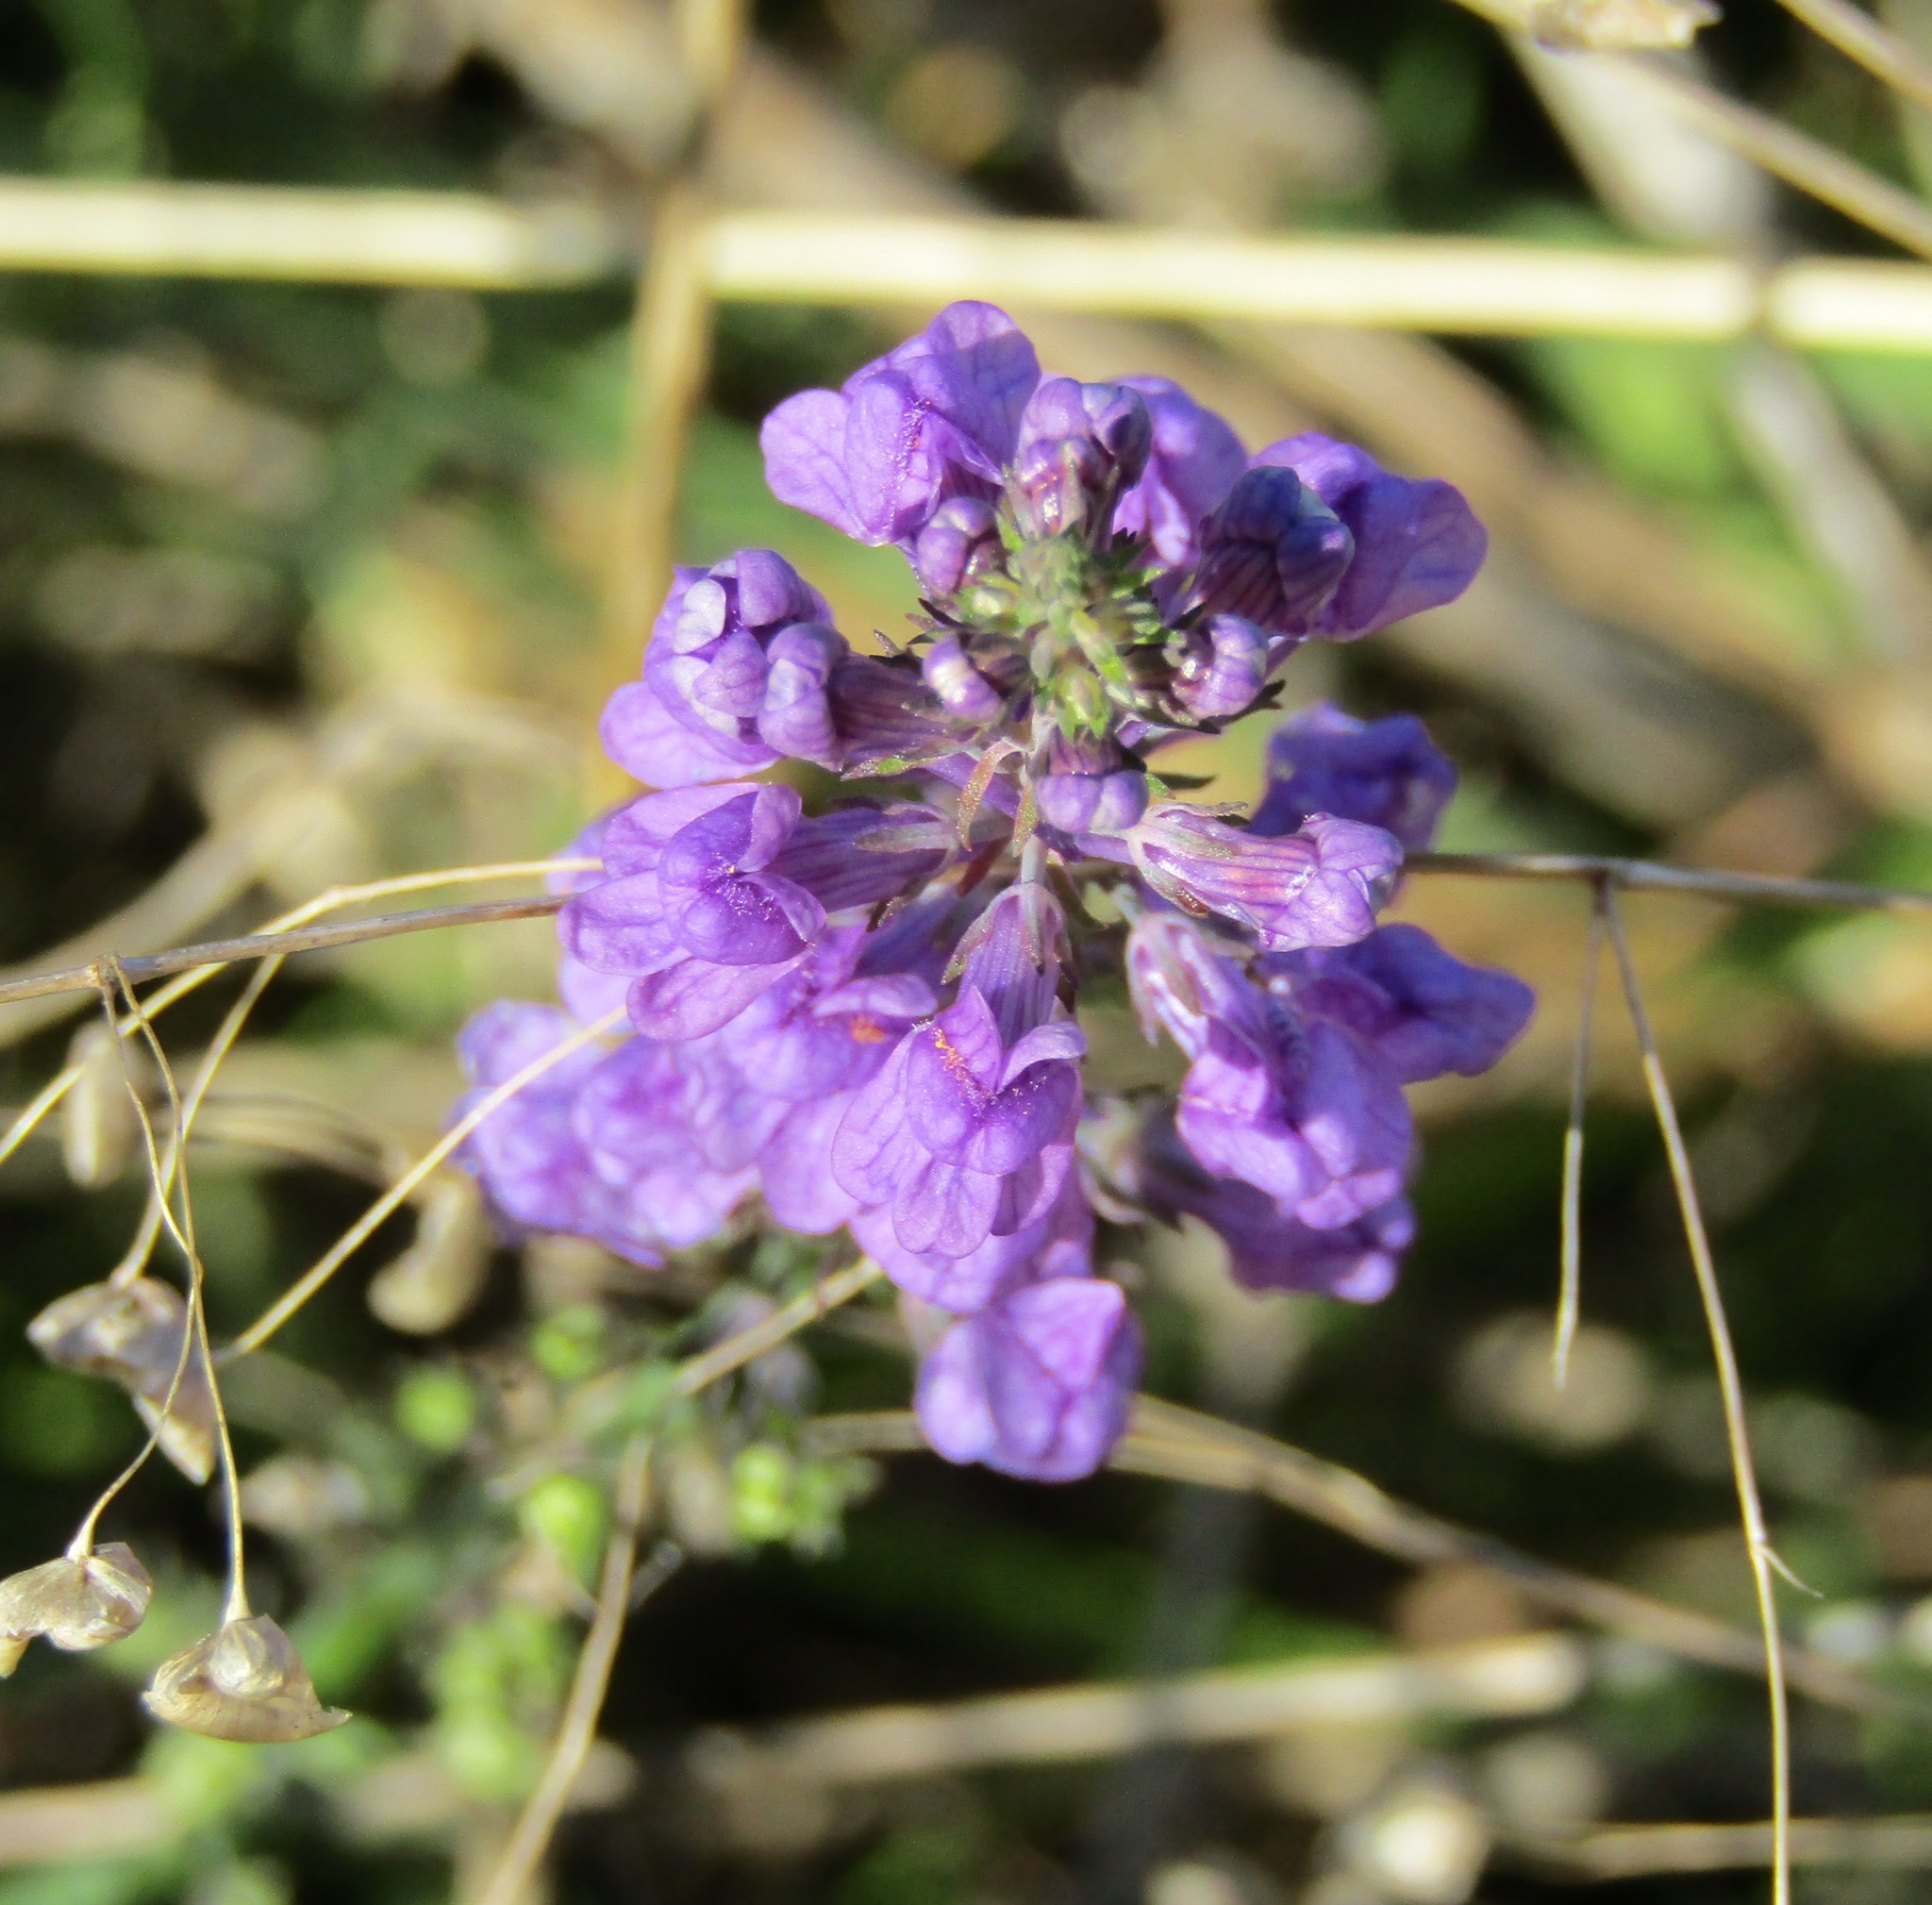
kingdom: Plantae
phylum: Tracheophyta
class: Magnoliopsida
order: Lamiales
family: Plantaginaceae
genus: Linaria
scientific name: Linaria purpurea
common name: Purple toadflax
